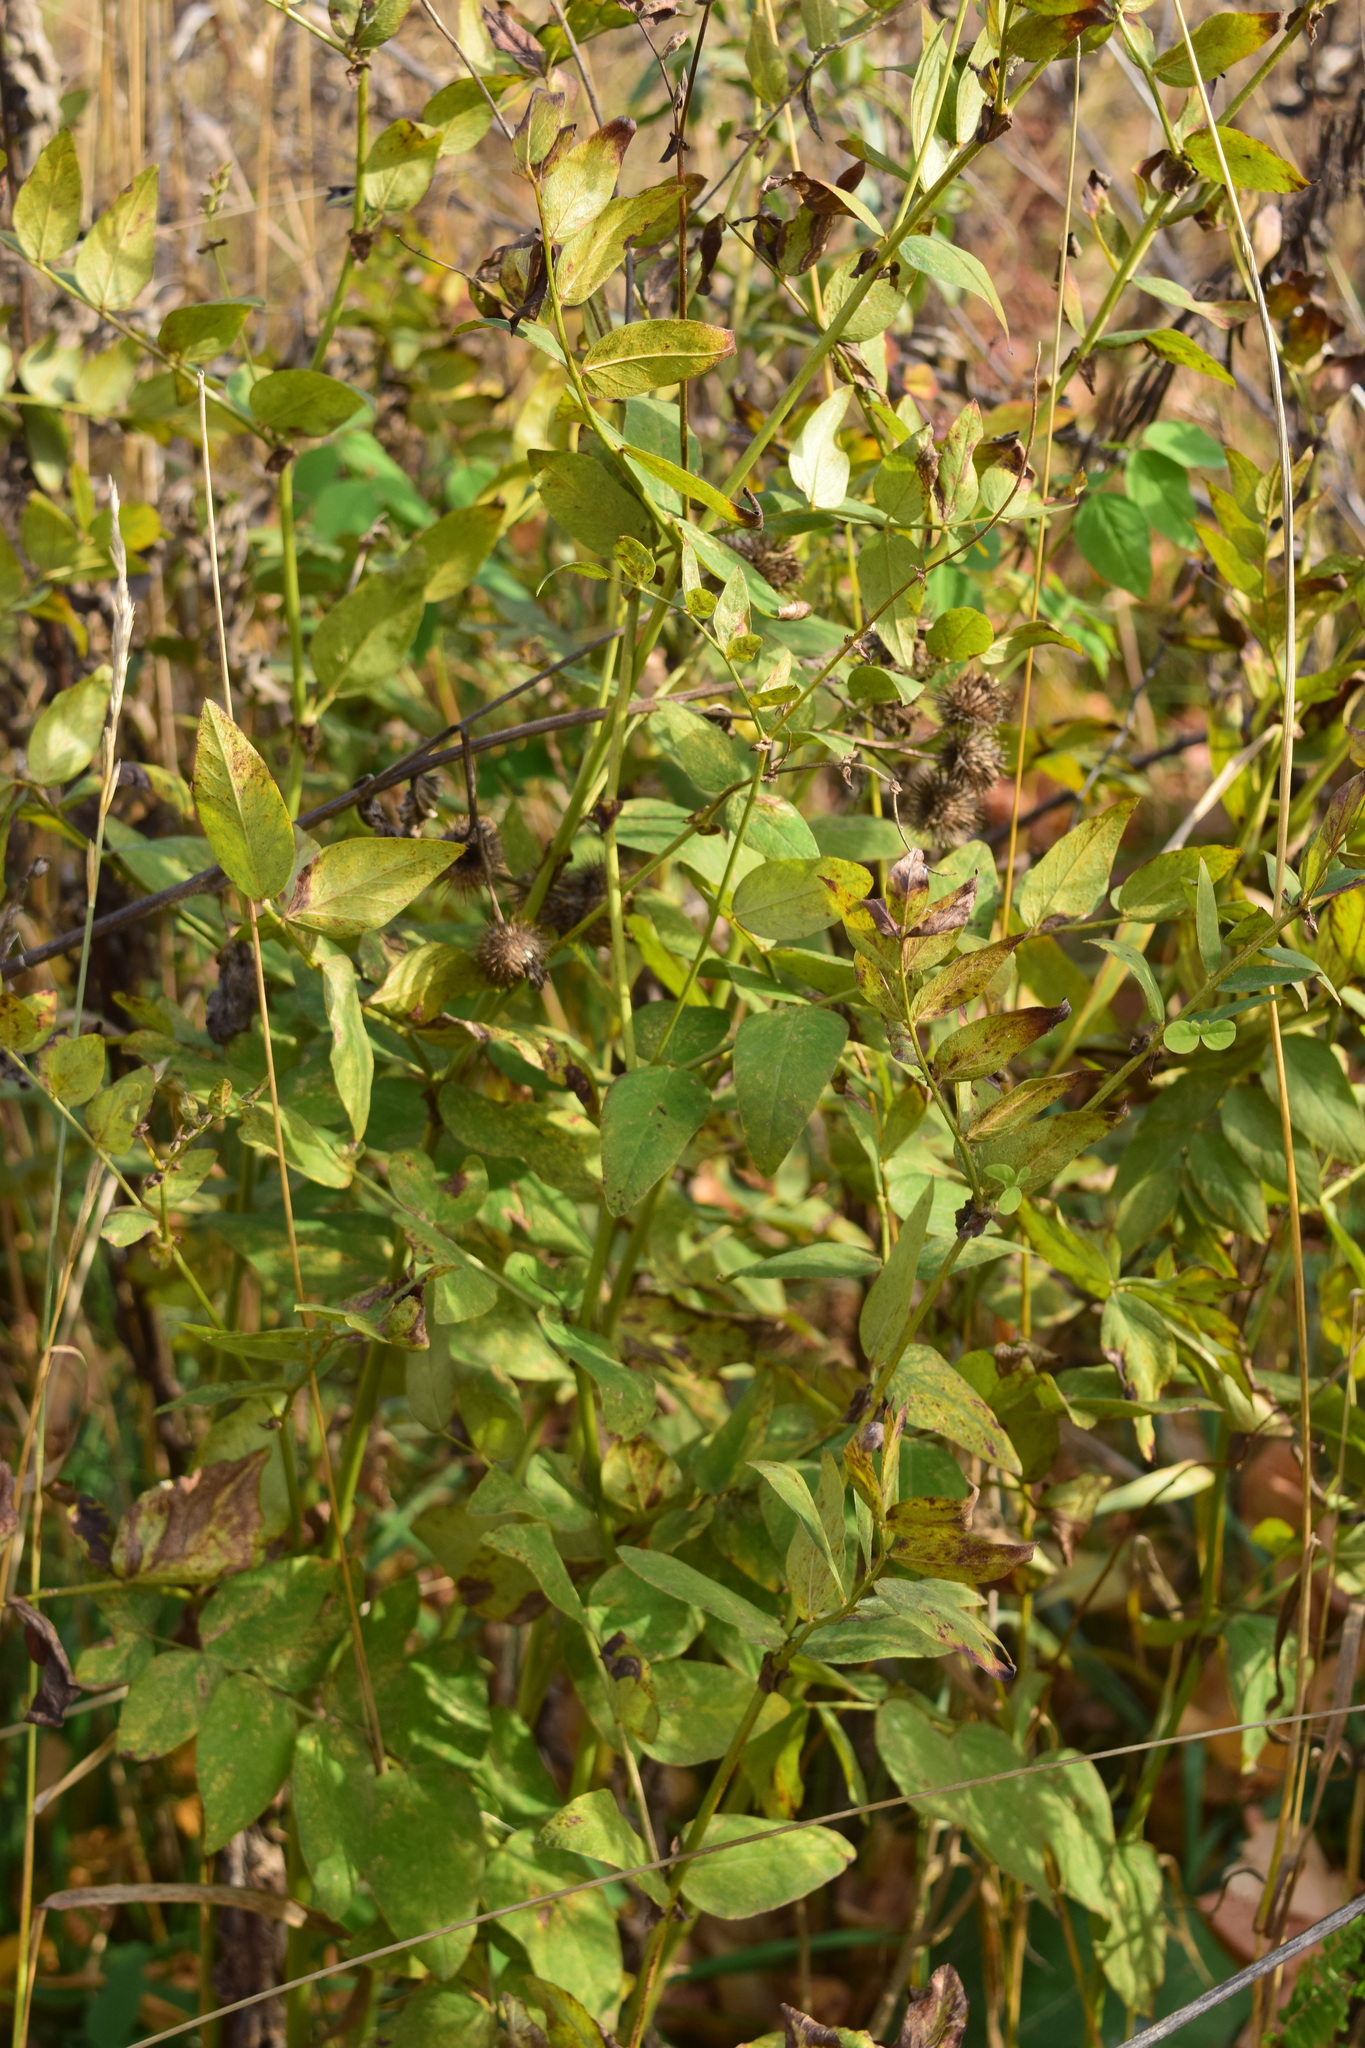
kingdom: Plantae
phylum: Tracheophyta
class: Magnoliopsida
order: Fabales
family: Fabaceae
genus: Galega
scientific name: Galega orientalis
